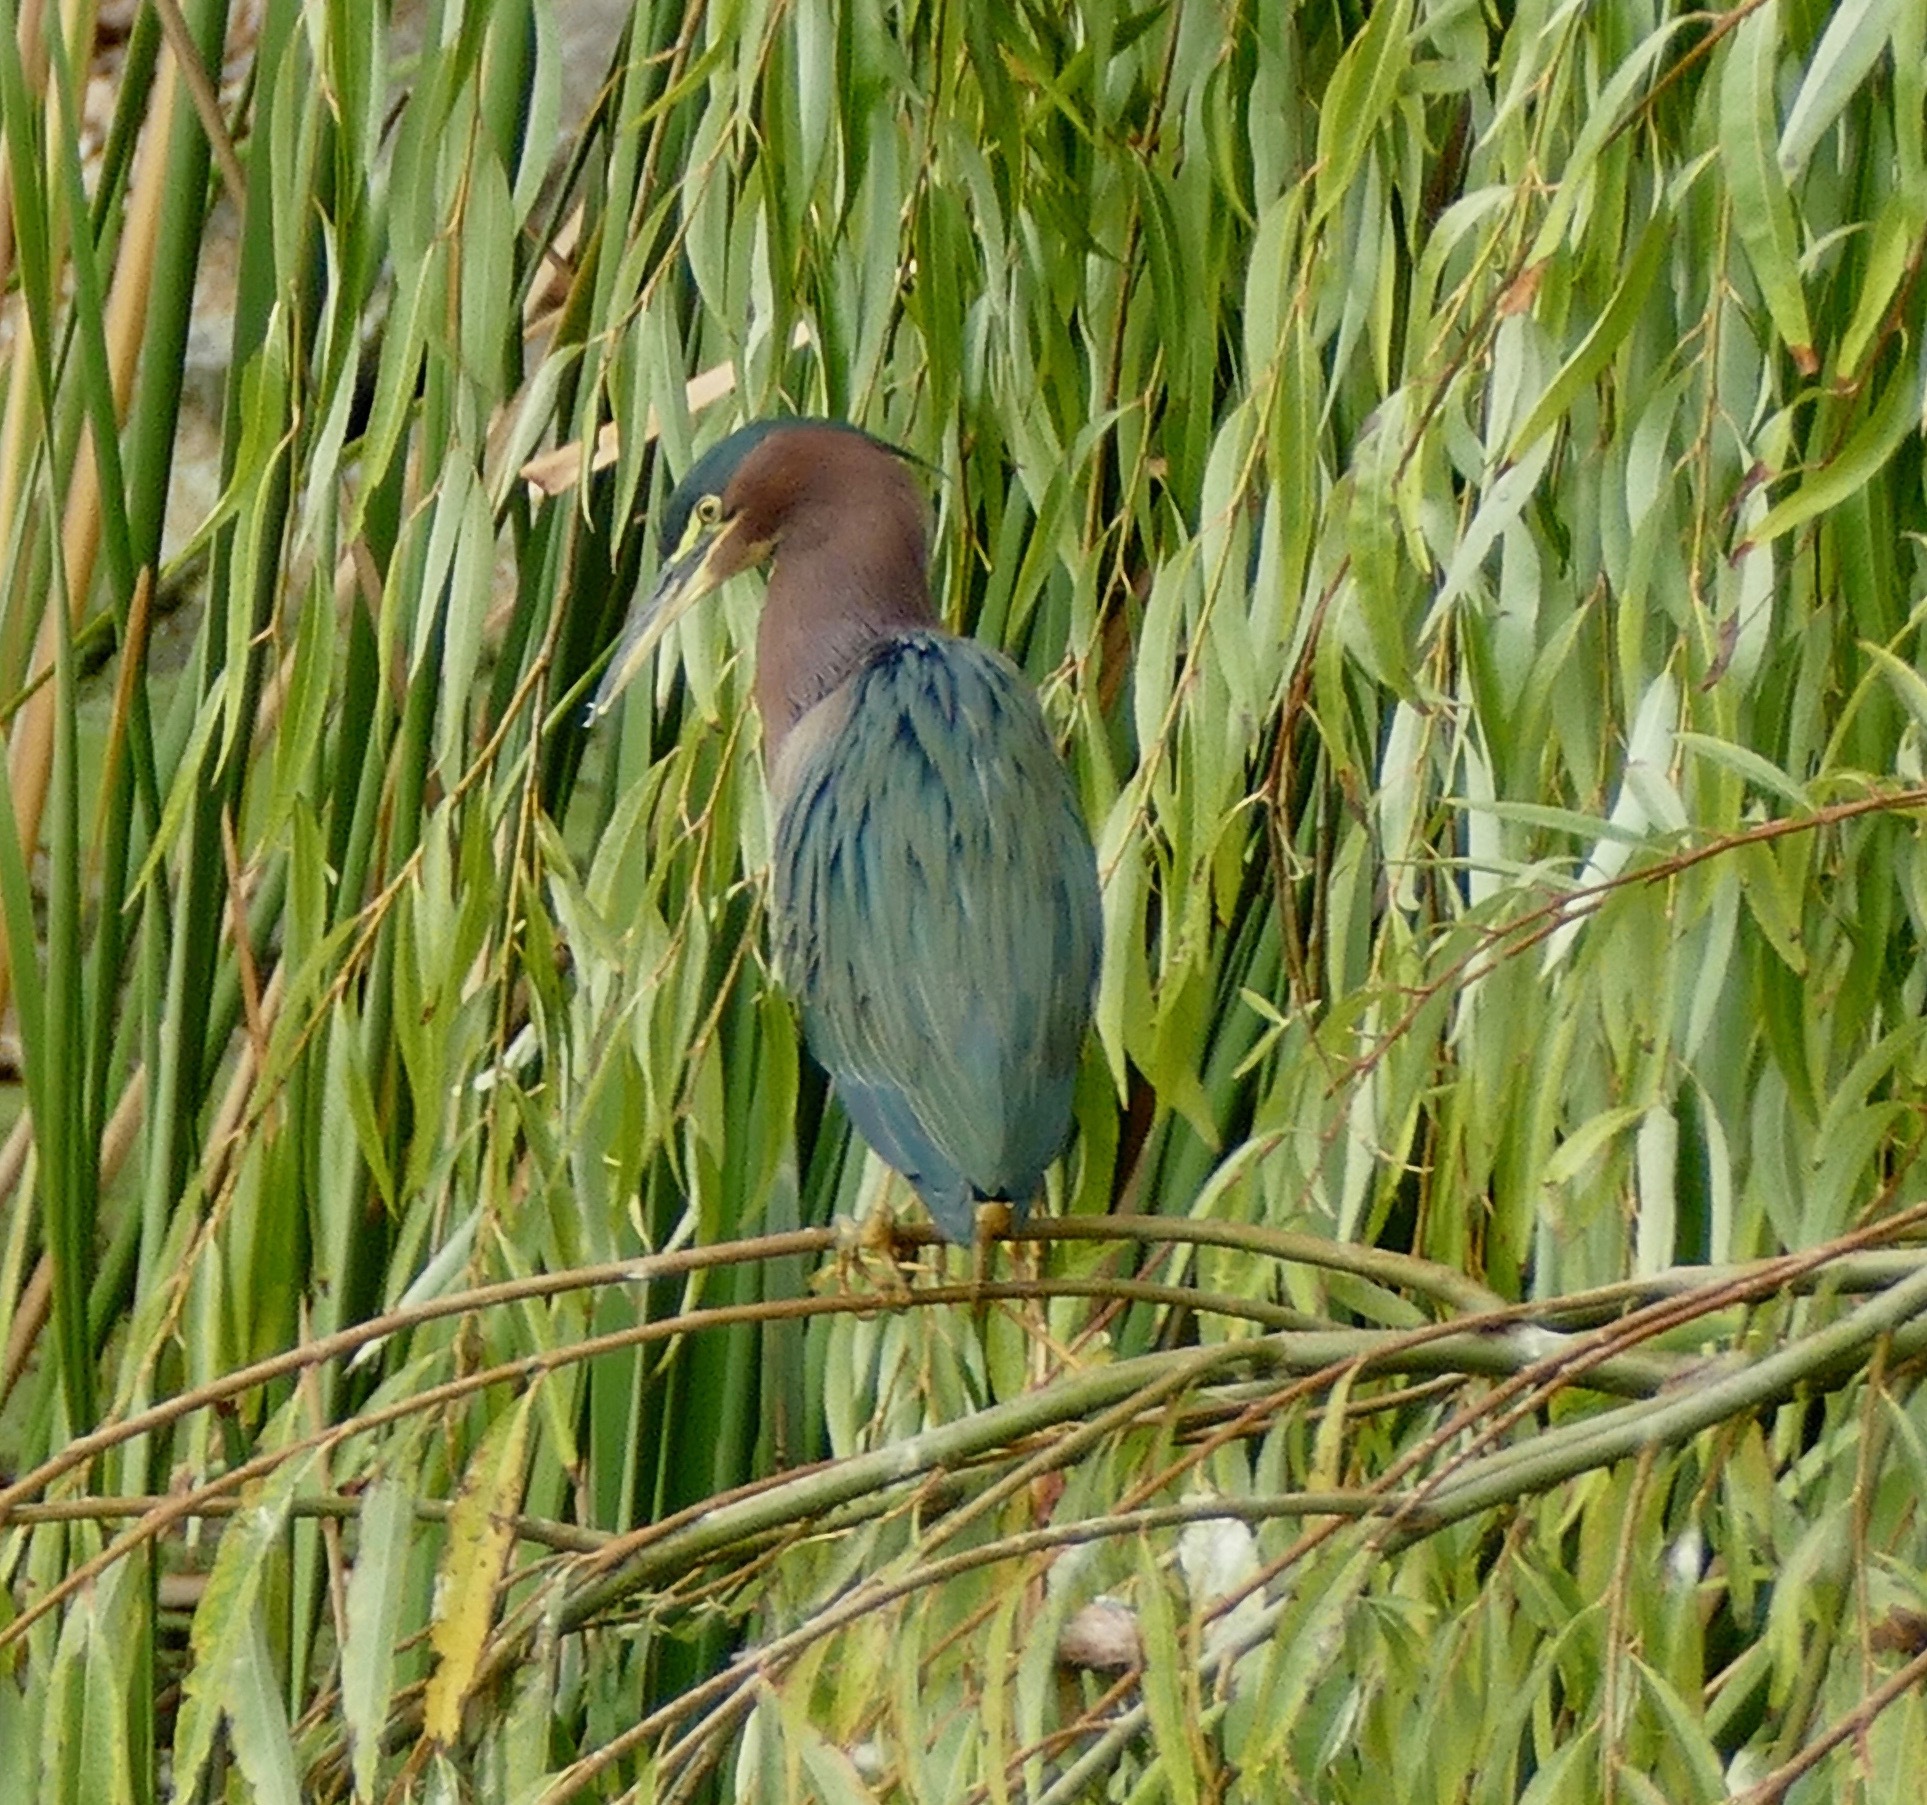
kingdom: Animalia
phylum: Chordata
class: Aves
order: Pelecaniformes
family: Ardeidae
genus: Butorides
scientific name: Butorides virescens
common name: Green heron
